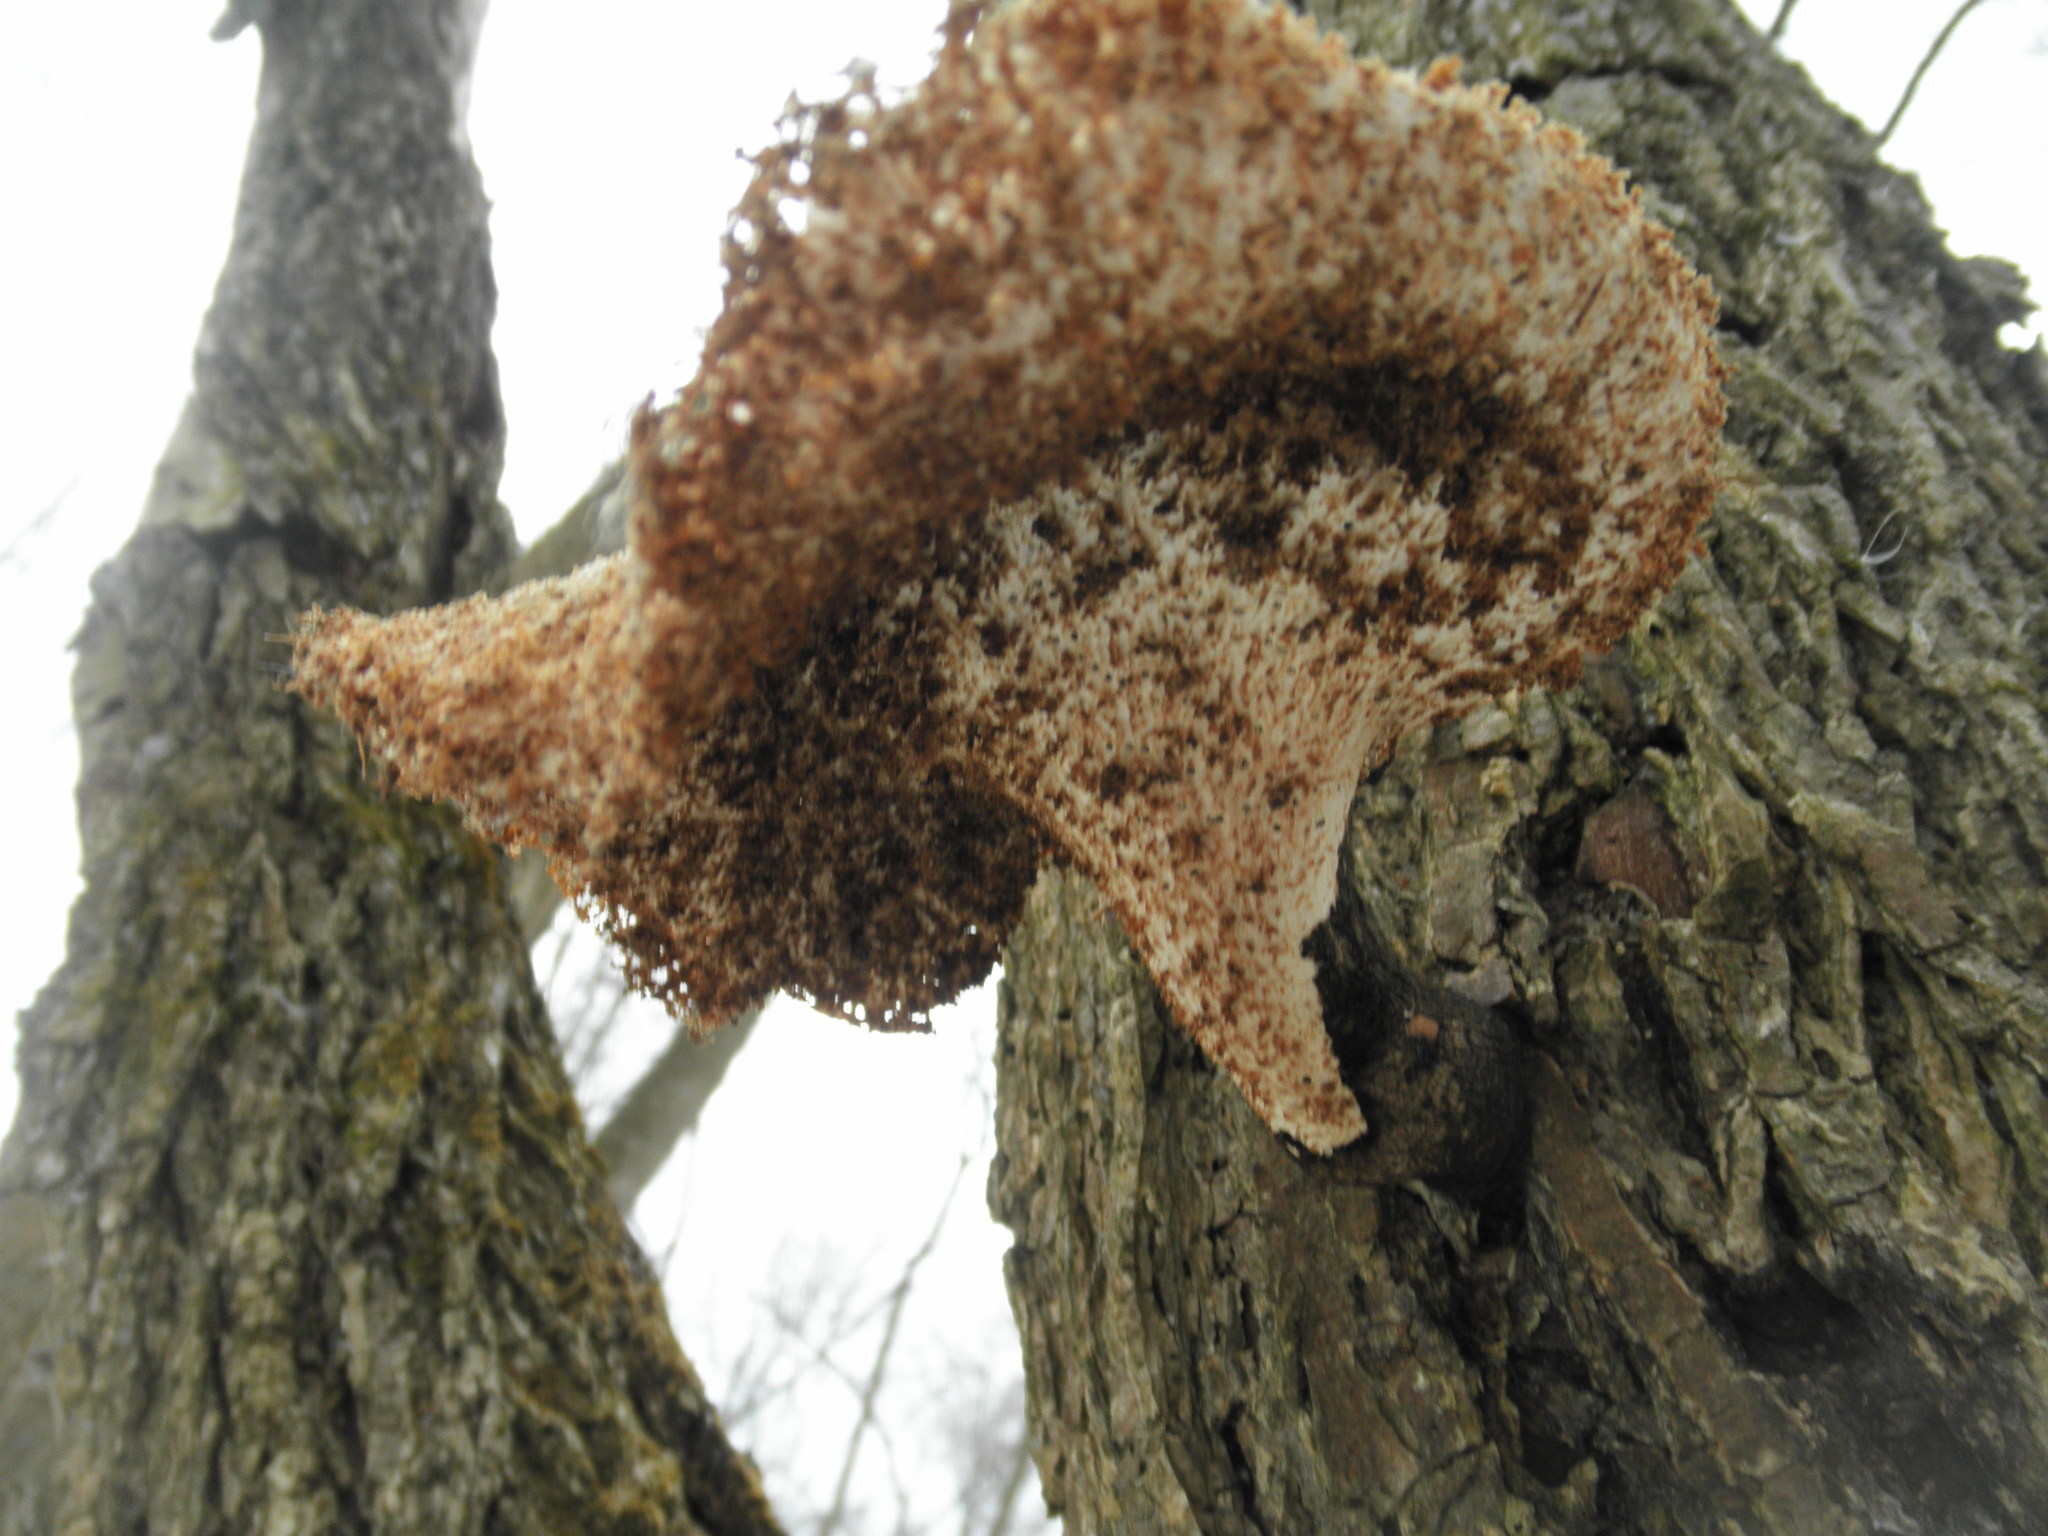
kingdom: Fungi
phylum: Basidiomycota
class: Agaricomycetes
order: Polyporales
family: Polyporaceae
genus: Cerioporus
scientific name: Cerioporus squamosus
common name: Dryad's saddle
